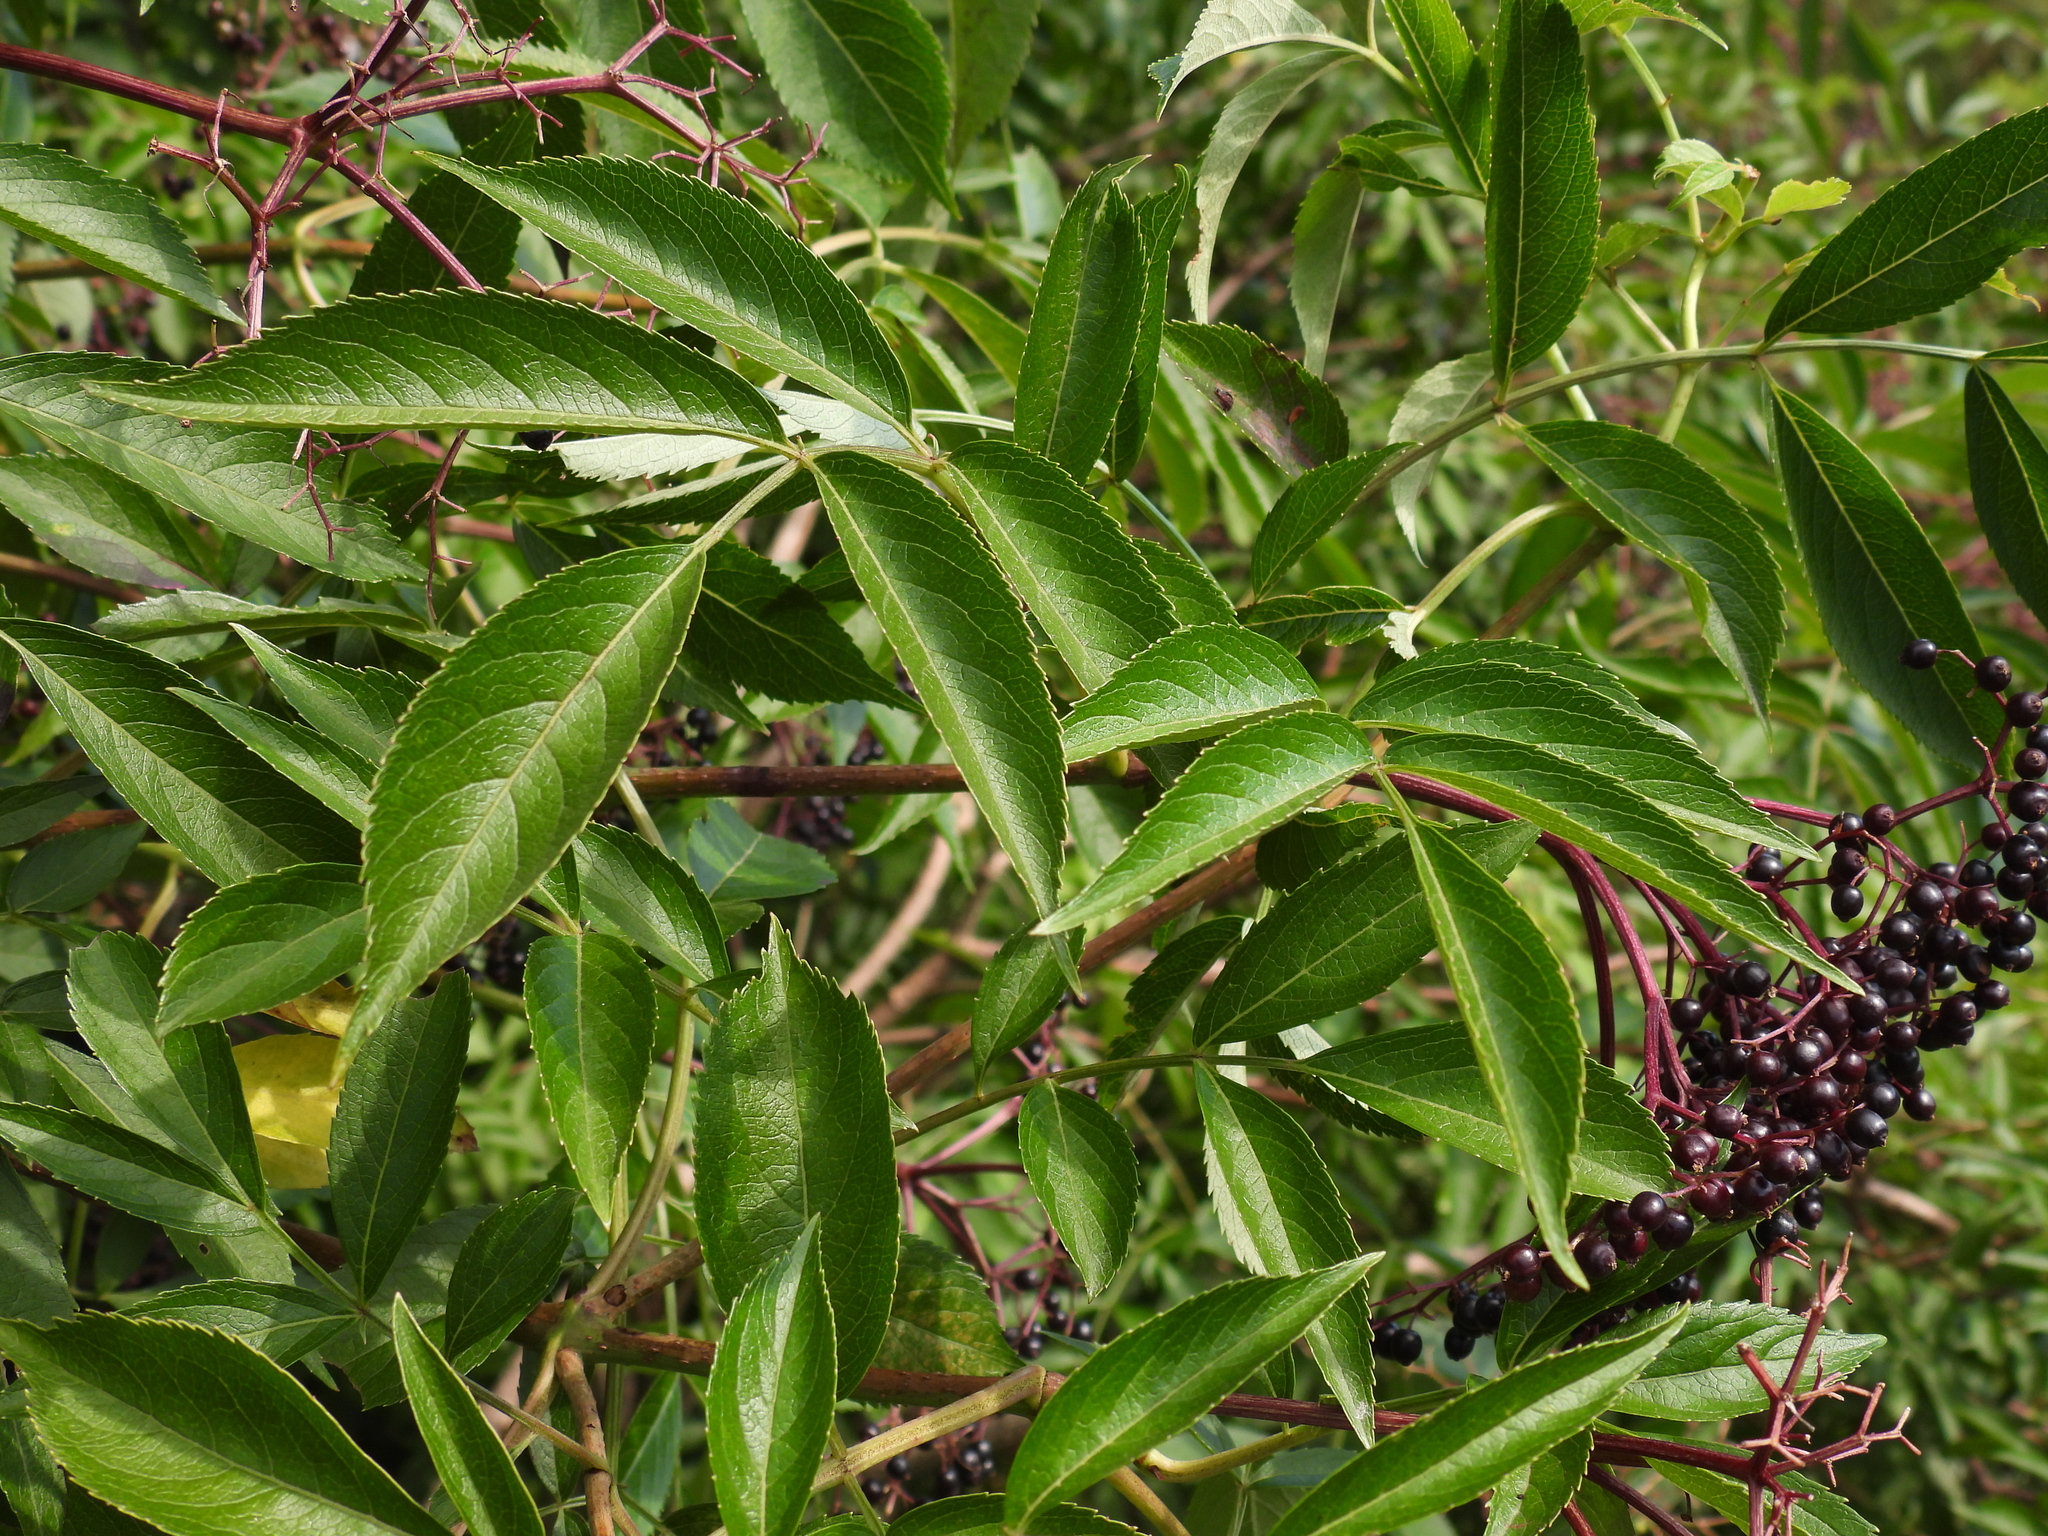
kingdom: Plantae
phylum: Tracheophyta
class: Magnoliopsida
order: Dipsacales
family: Viburnaceae
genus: Sambucus
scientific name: Sambucus canadensis
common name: American elder
